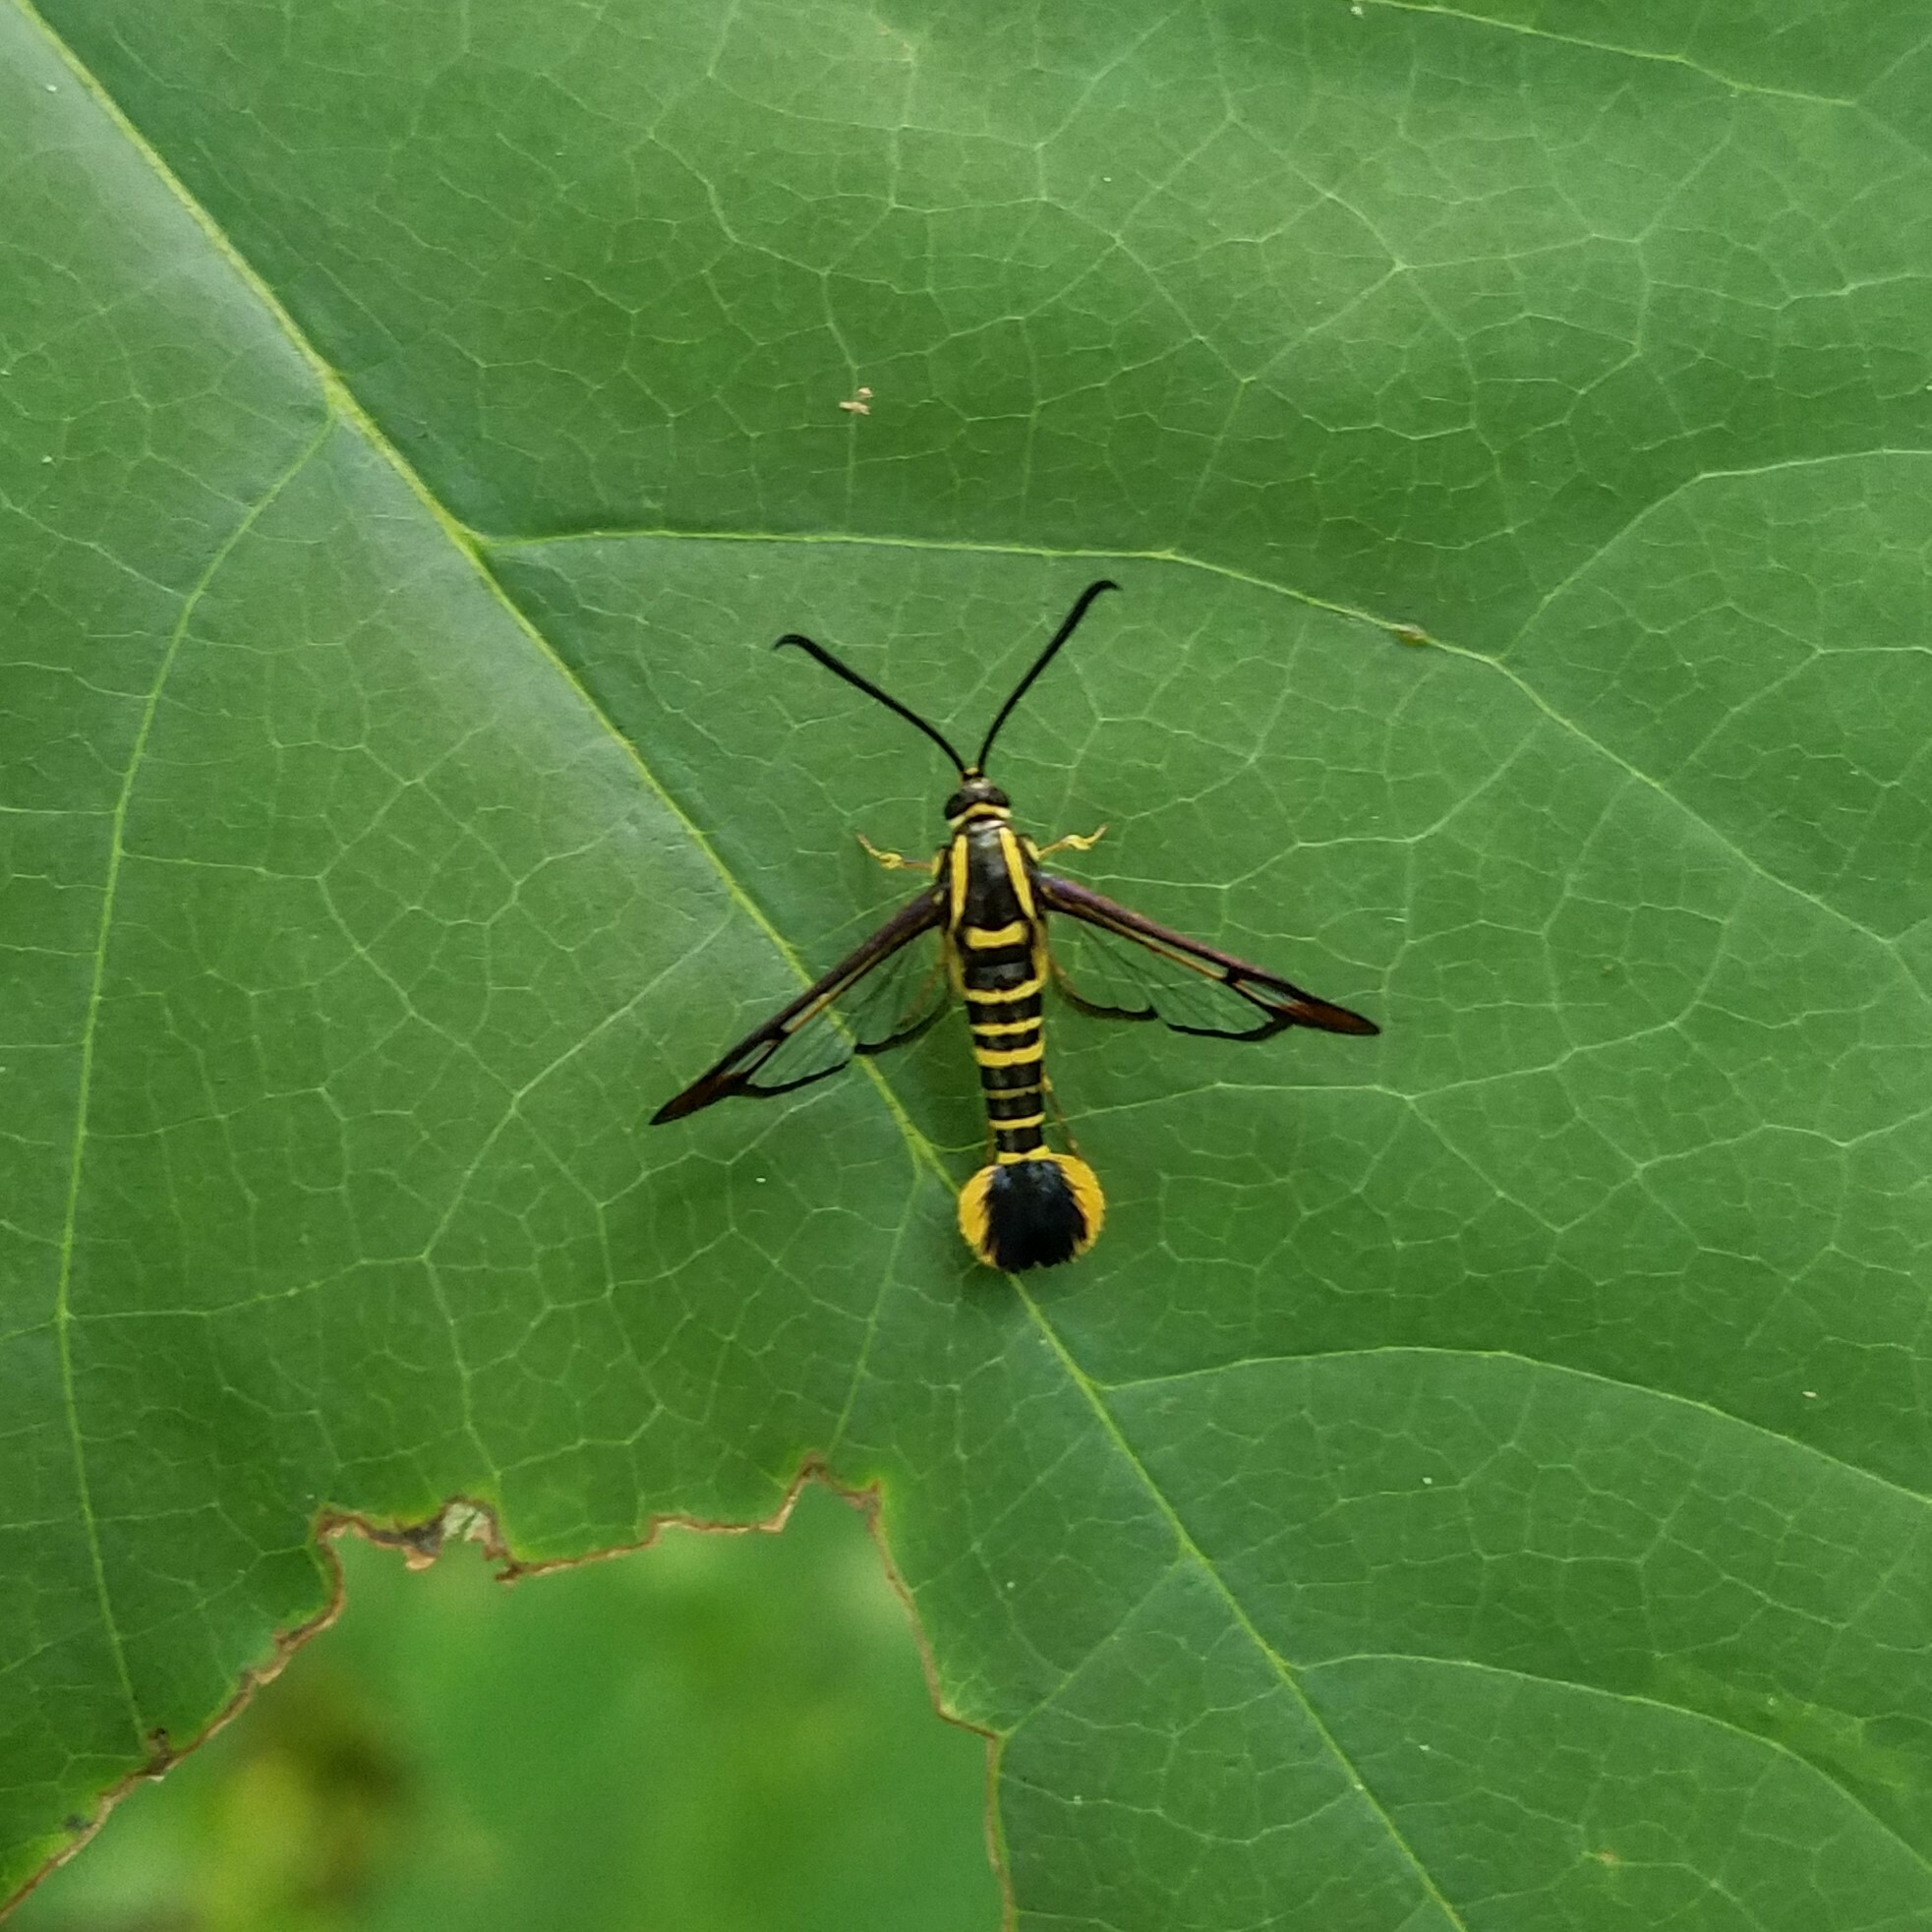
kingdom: Animalia
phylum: Arthropoda
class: Insecta
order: Lepidoptera
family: Sesiidae
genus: Synanthedon
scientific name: Synanthedon arkansasensis
